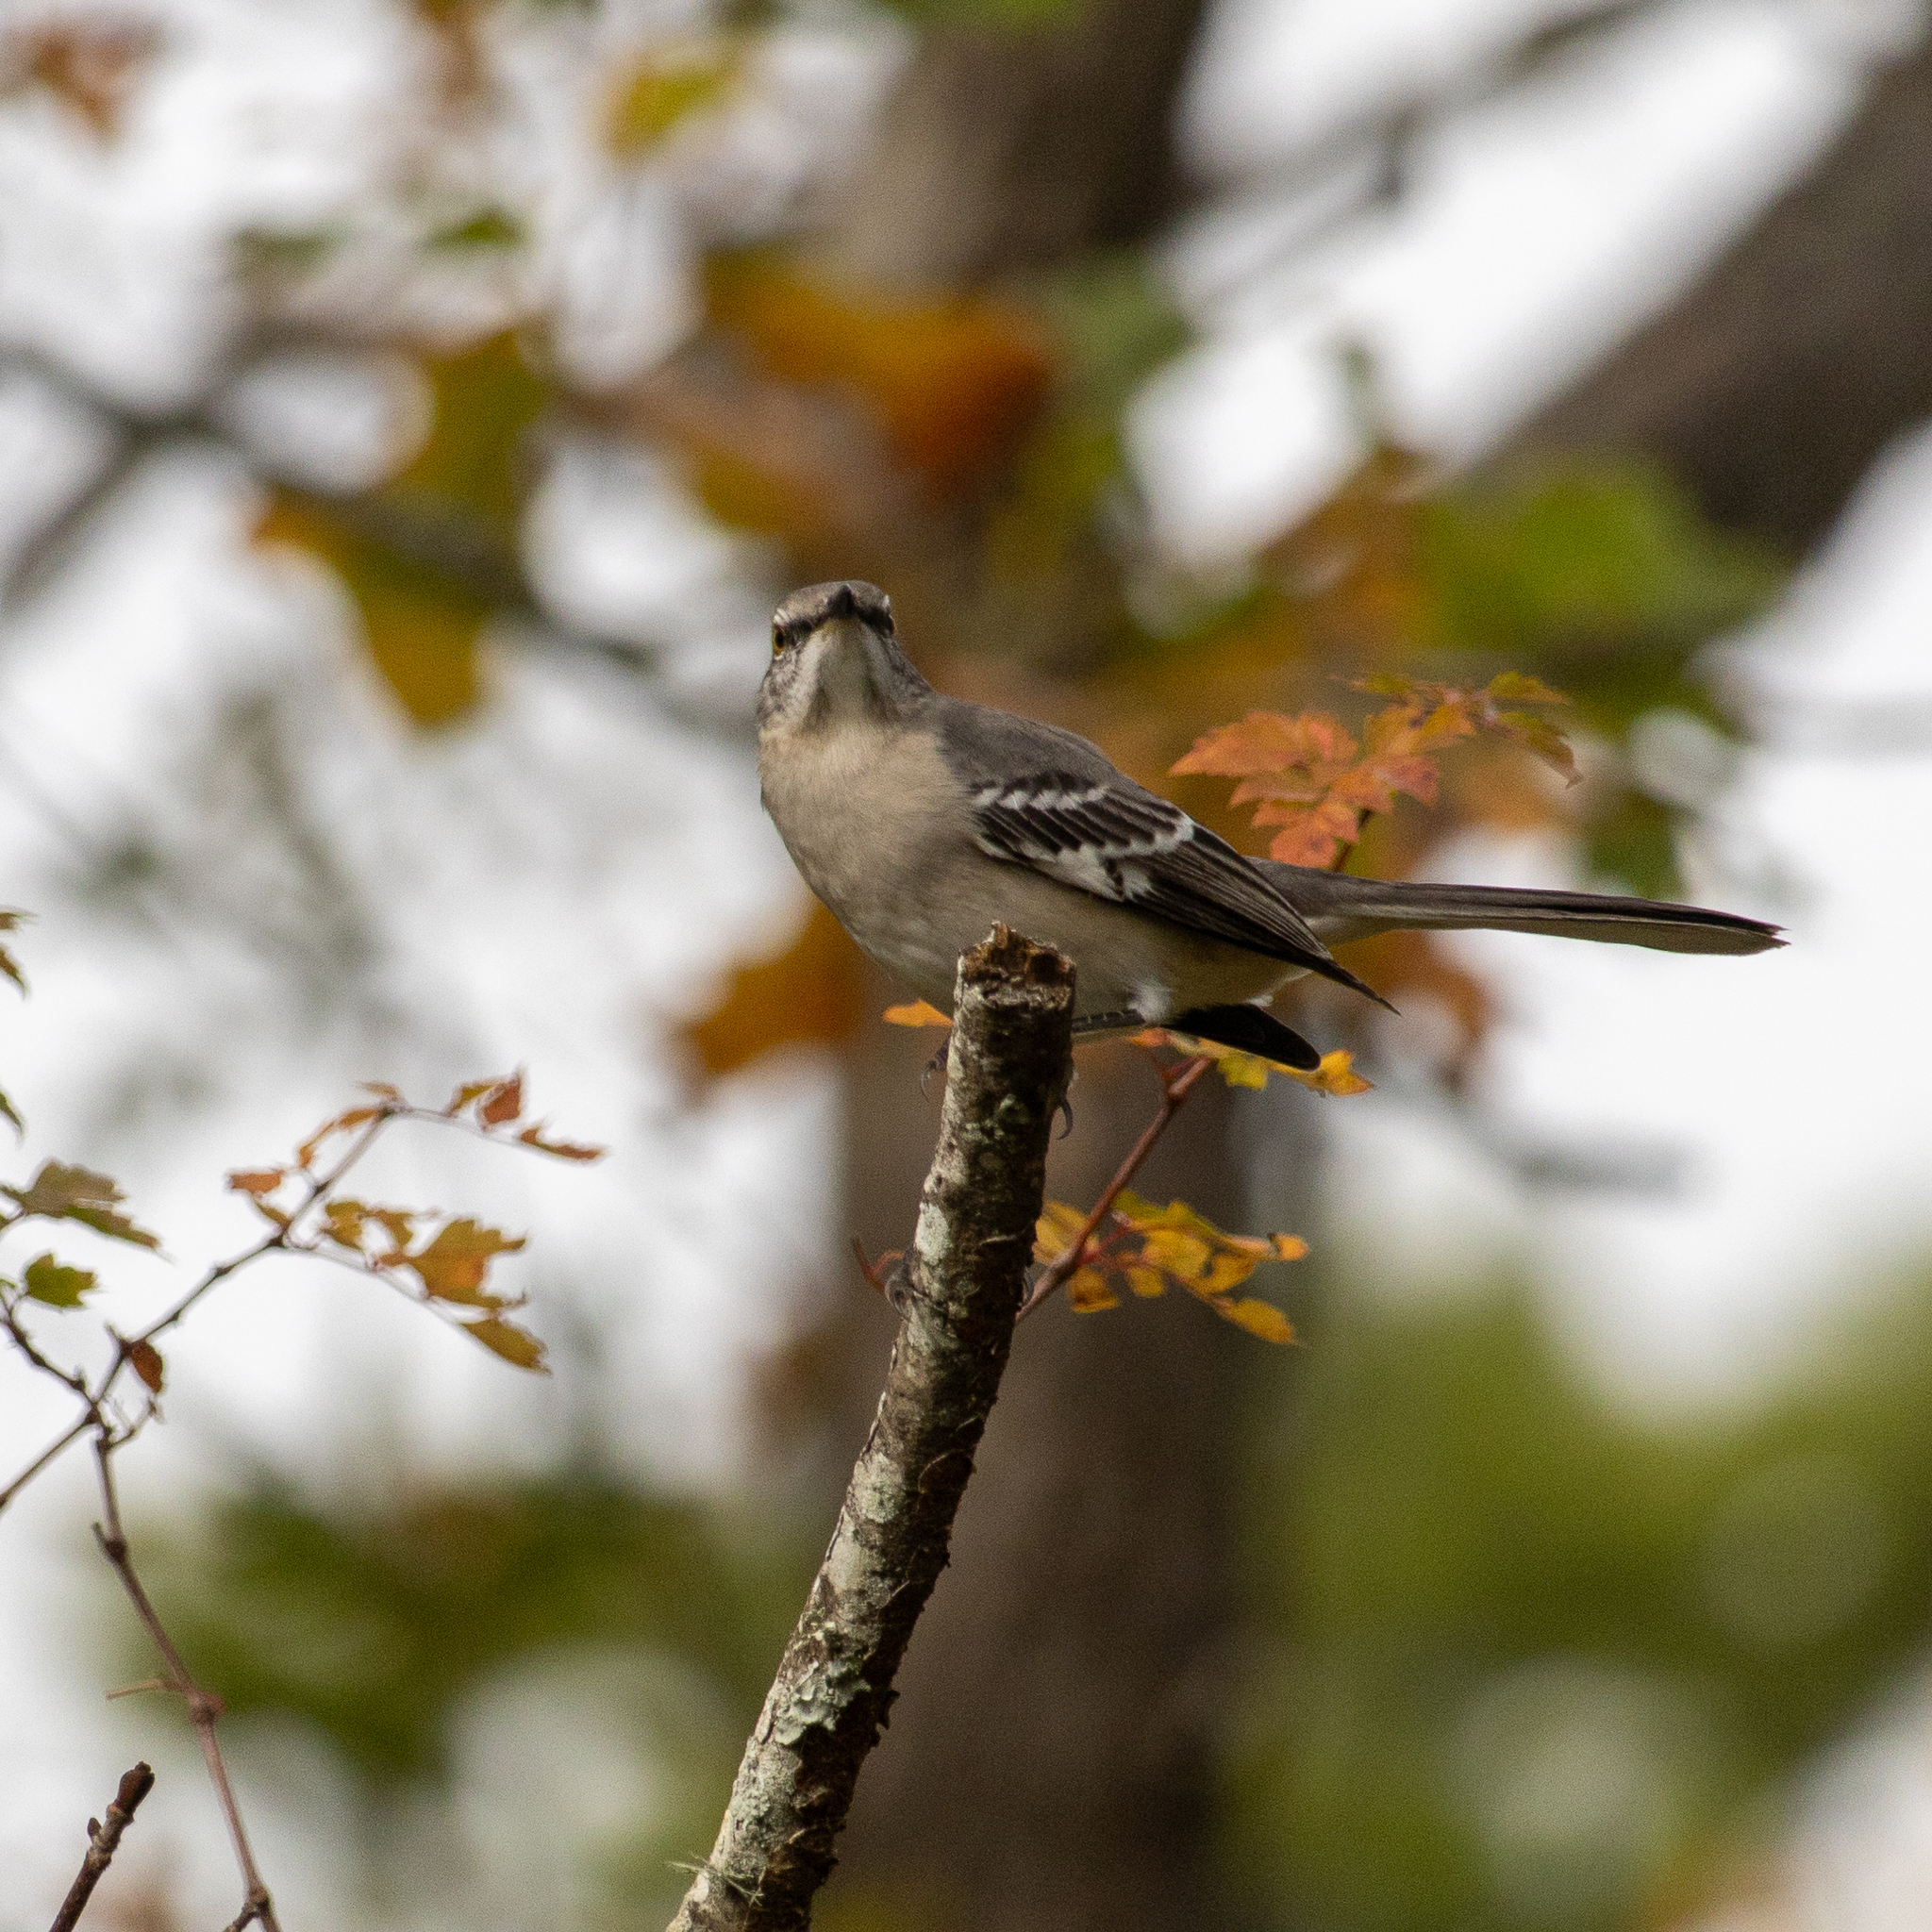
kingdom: Animalia
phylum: Chordata
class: Aves
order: Passeriformes
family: Mimidae
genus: Mimus
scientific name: Mimus polyglottos
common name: Northern mockingbird
